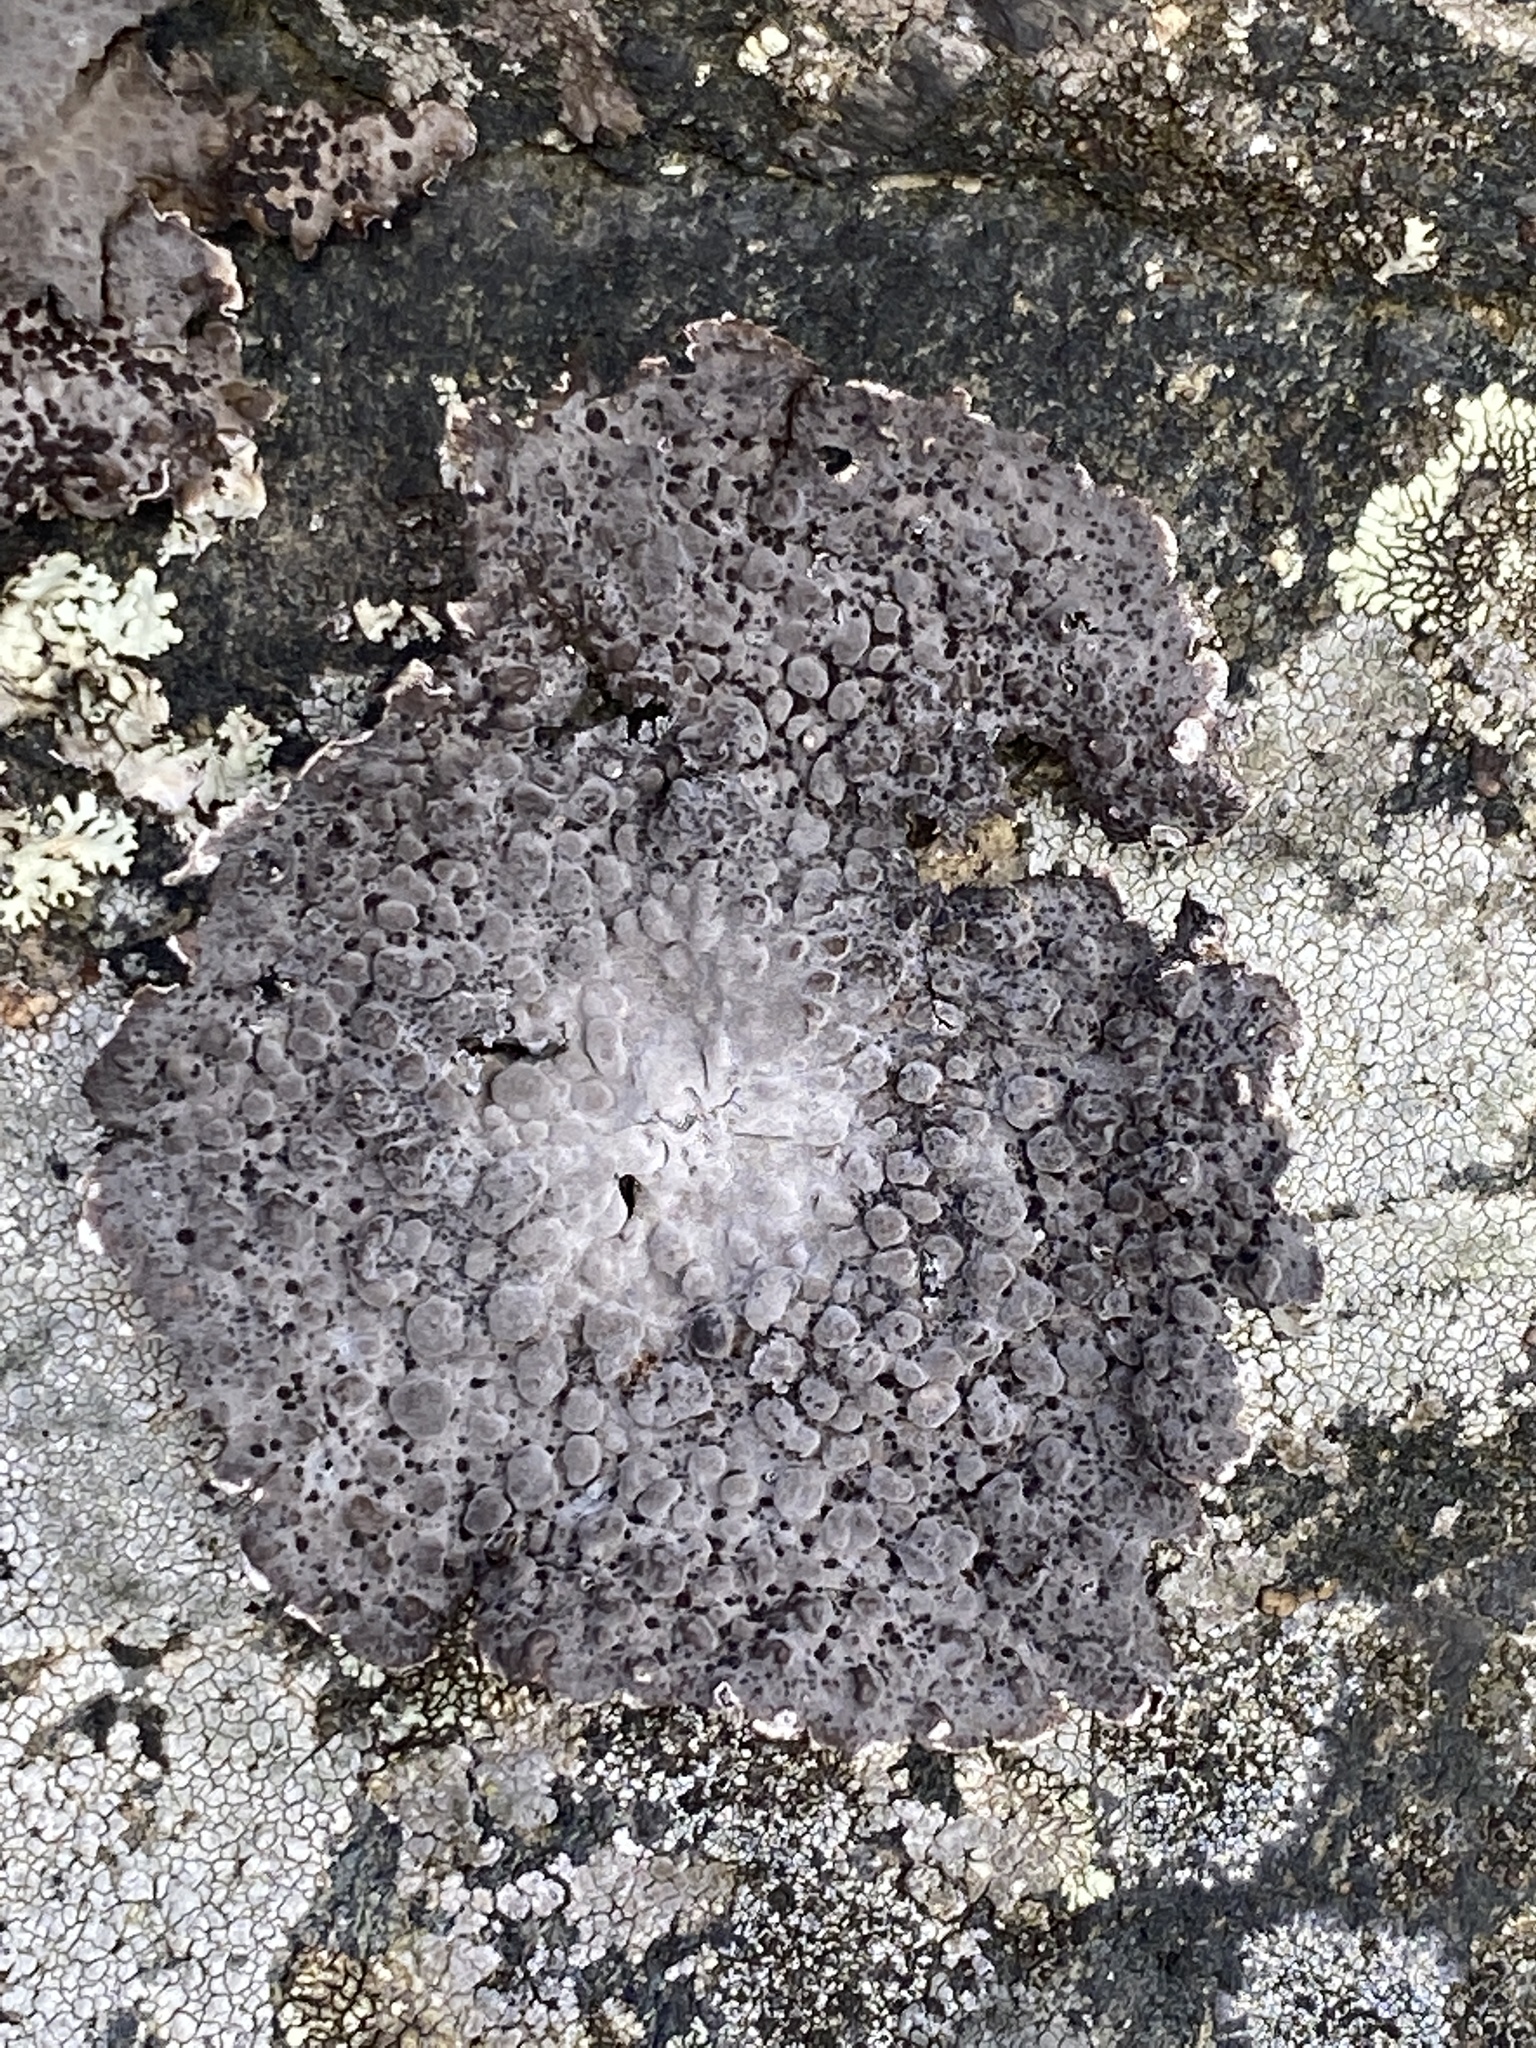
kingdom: Fungi
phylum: Ascomycota
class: Lecanoromycetes
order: Umbilicariales
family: Umbilicariaceae
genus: Lasallia
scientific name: Lasallia papulosa
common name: Common toadskin lichen
